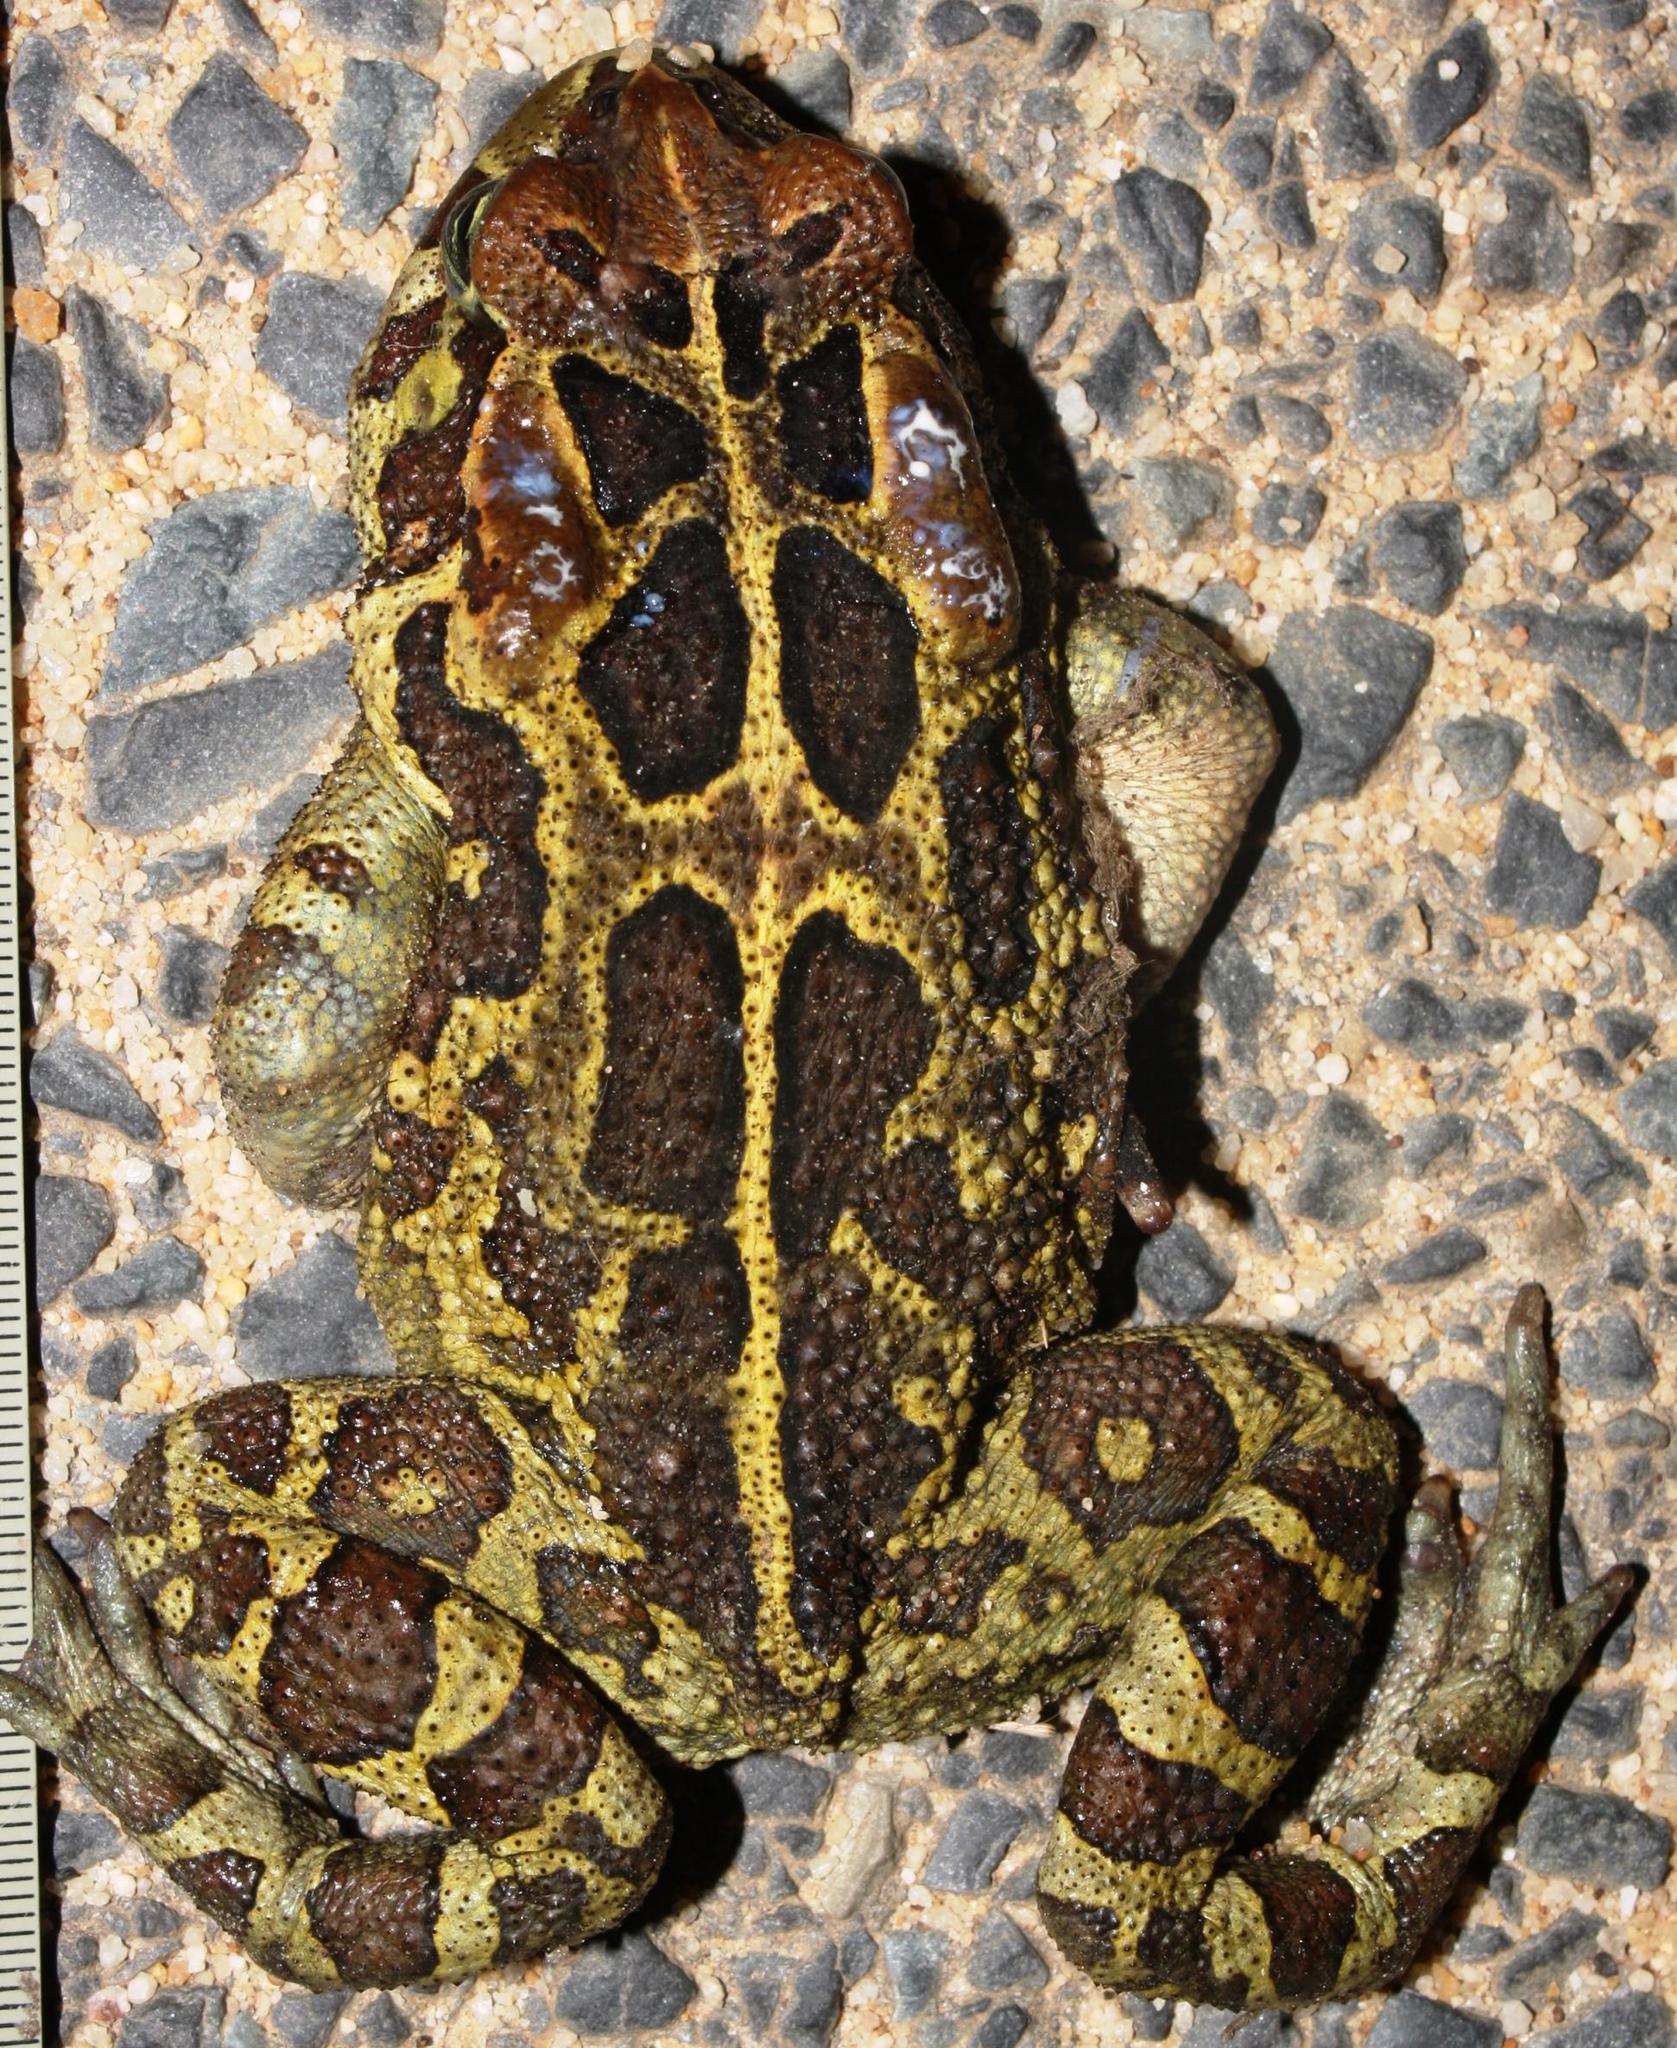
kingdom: Animalia
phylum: Chordata
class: Amphibia
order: Anura
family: Bufonidae
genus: Sclerophrys
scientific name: Sclerophrys pantherina
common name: Panther toad
